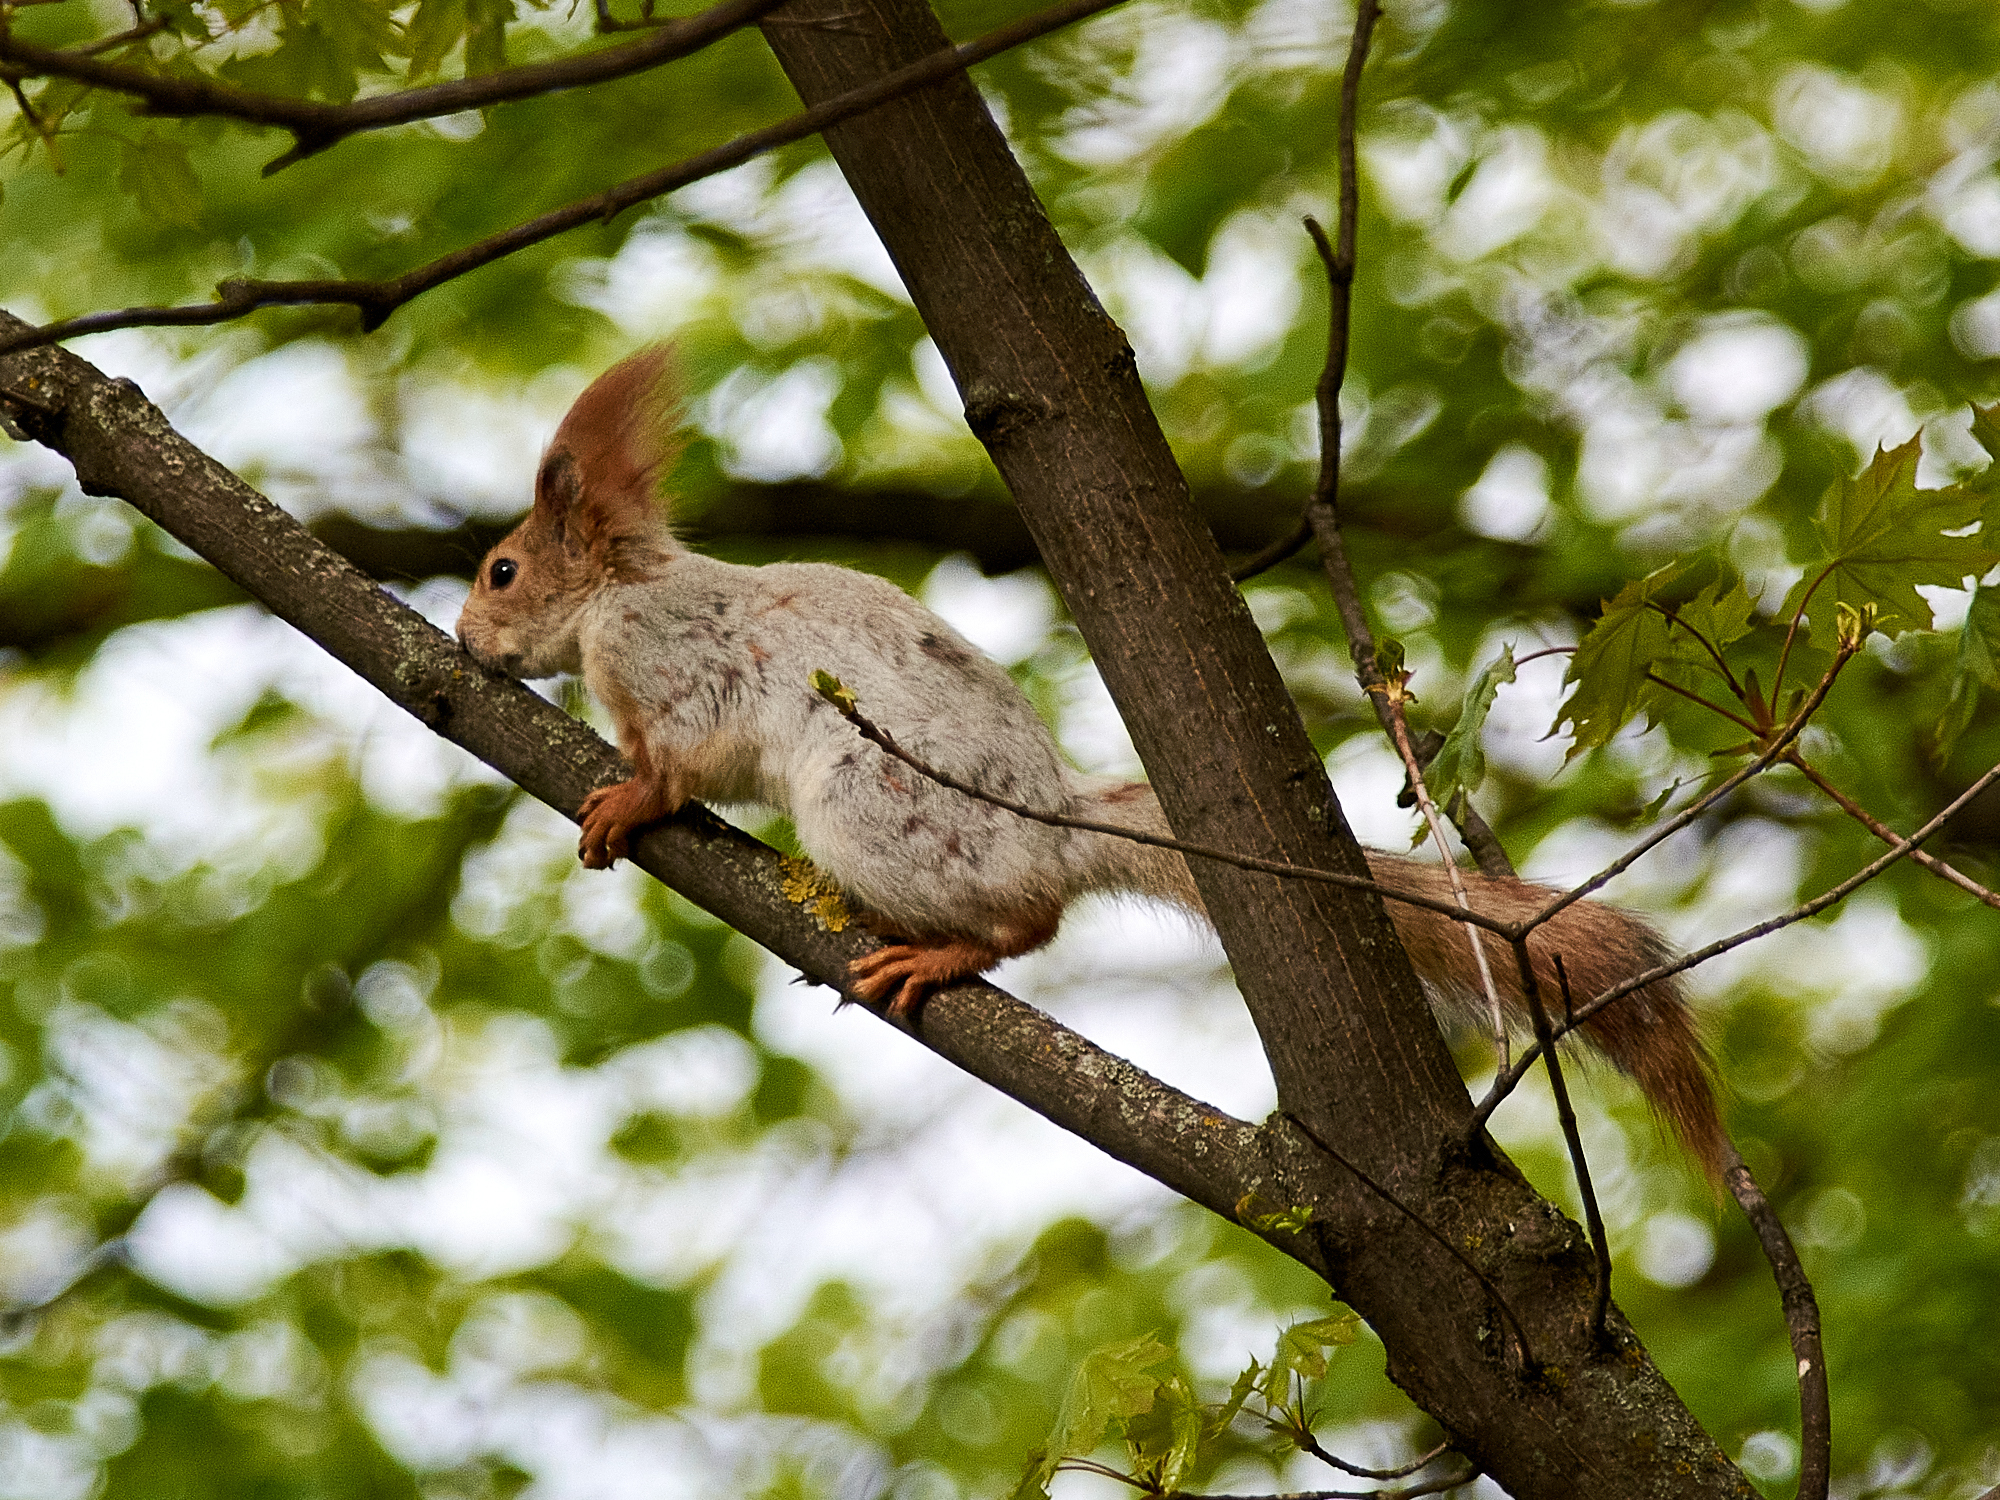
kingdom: Animalia
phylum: Chordata
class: Mammalia
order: Rodentia
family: Sciuridae
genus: Sciurus
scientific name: Sciurus vulgaris
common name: Eurasian red squirrel
